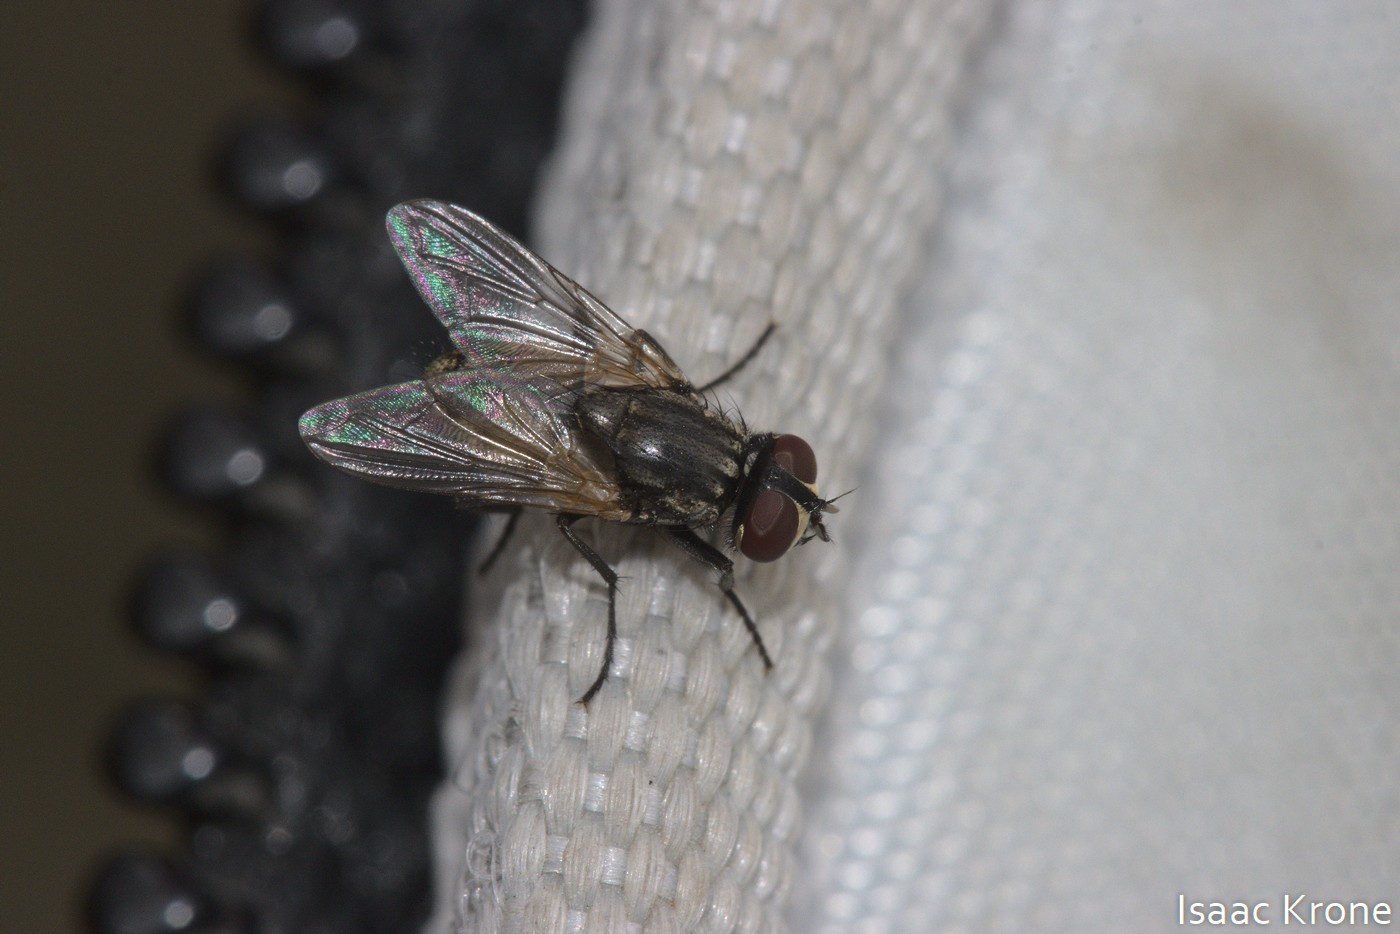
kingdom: Animalia
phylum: Arthropoda
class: Insecta
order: Diptera
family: Muscidae
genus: Musca
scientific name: Musca domestica
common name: House fly
